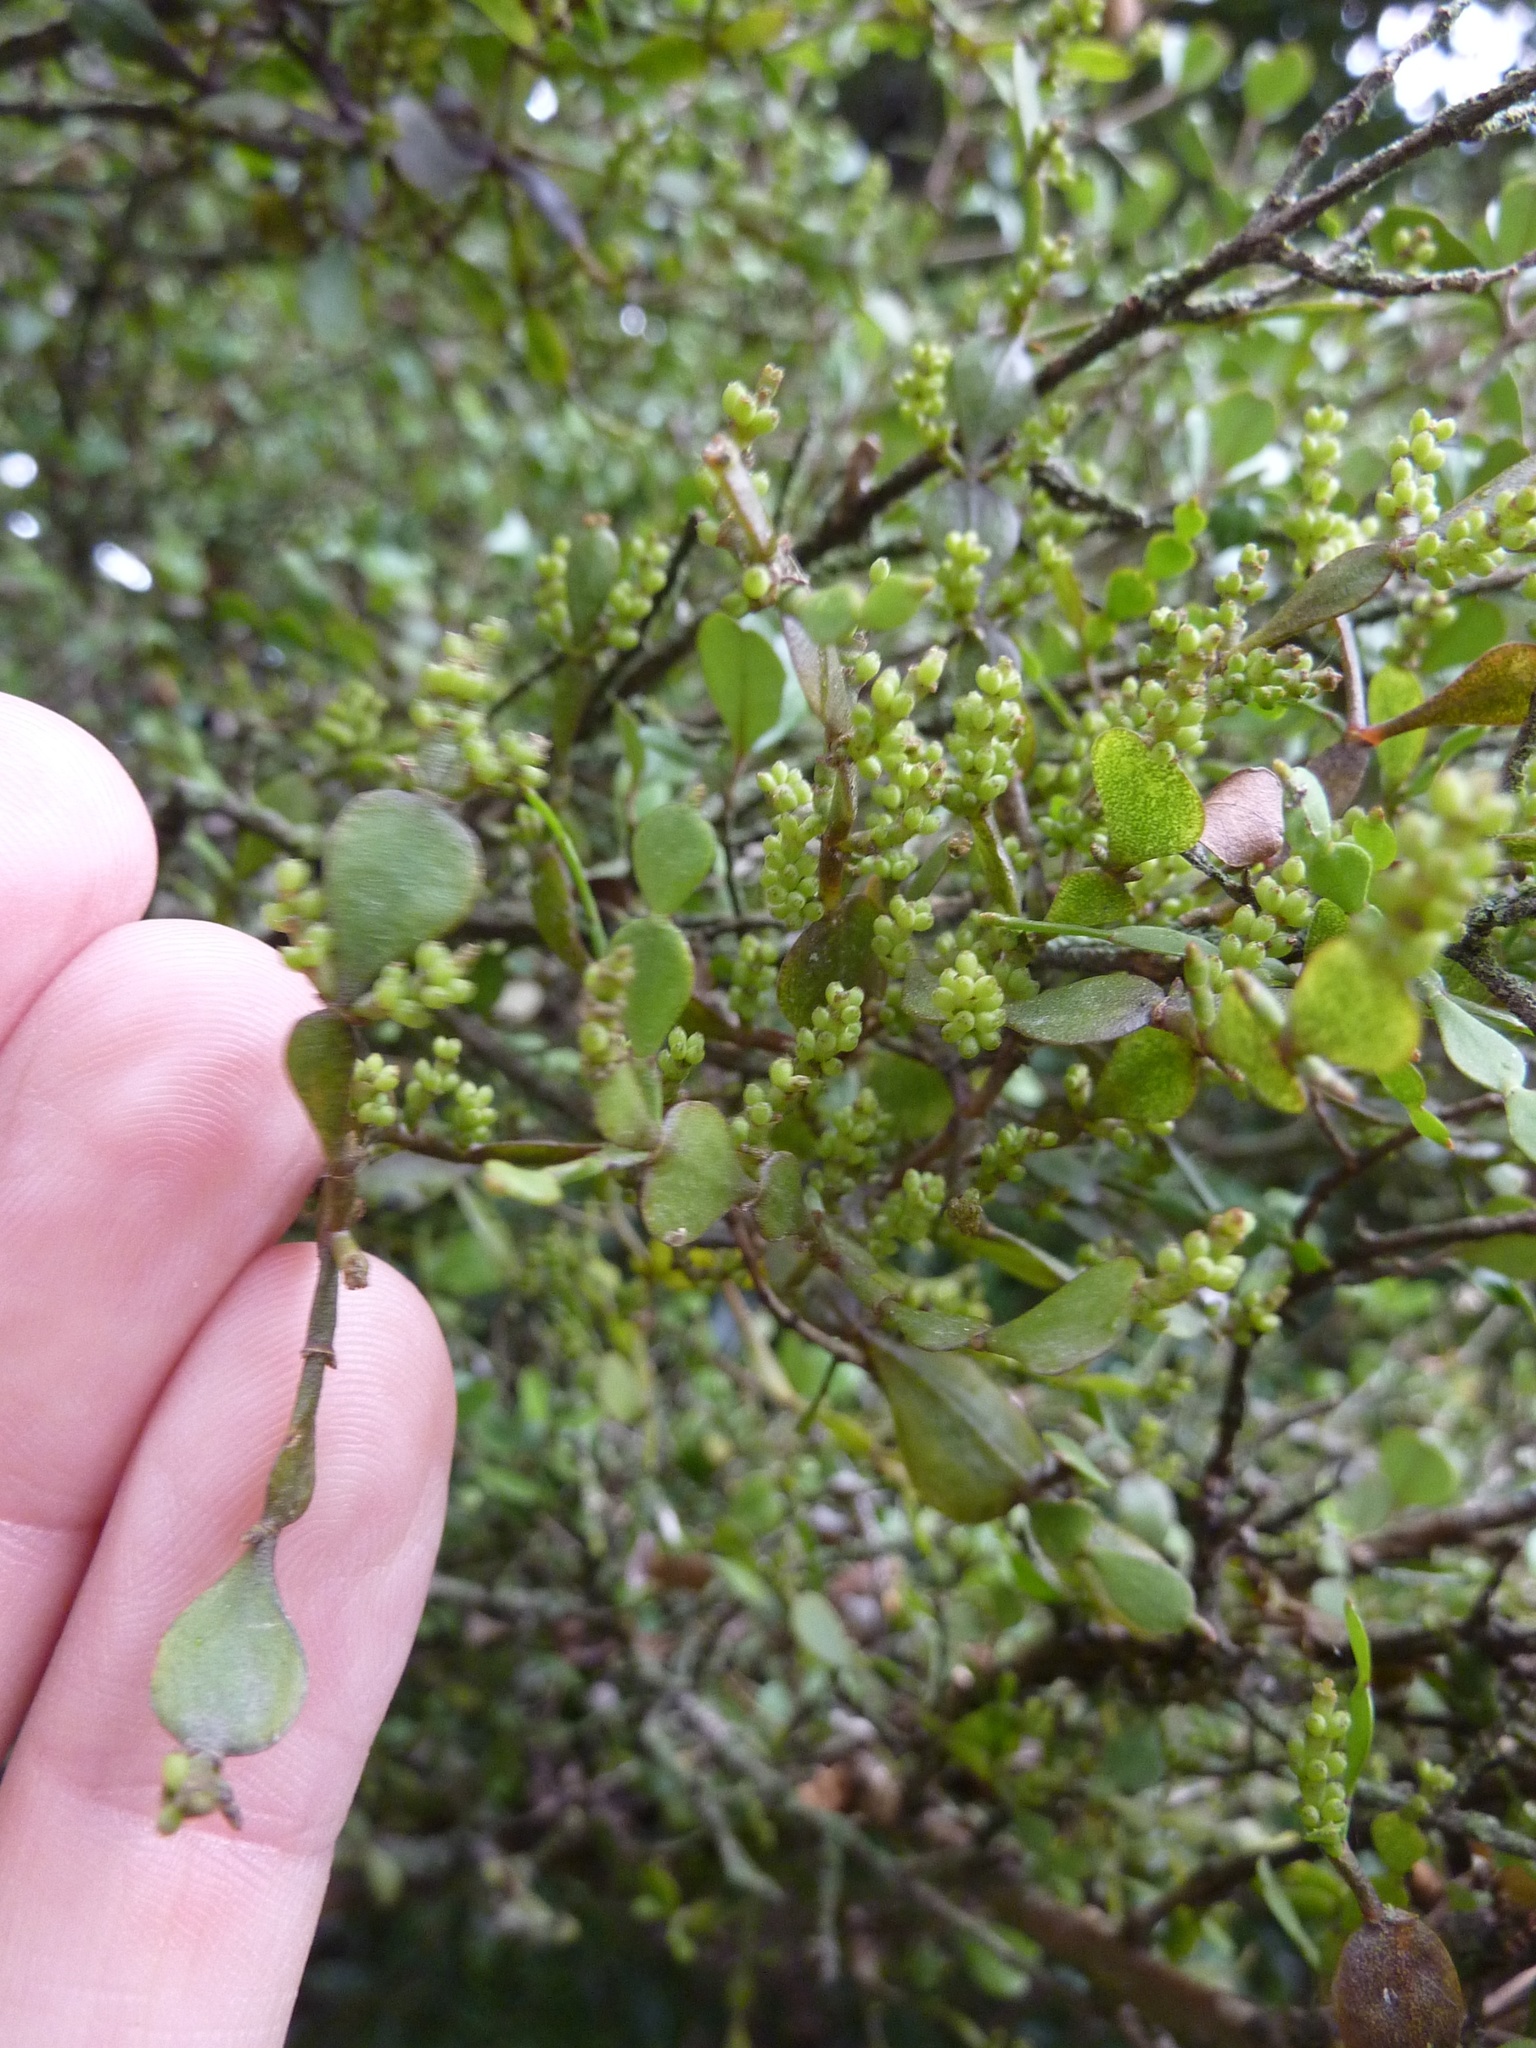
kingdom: Plantae
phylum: Tracheophyta
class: Magnoliopsida
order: Santalales
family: Viscaceae
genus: Korthalsella
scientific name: Korthalsella lindsayi
